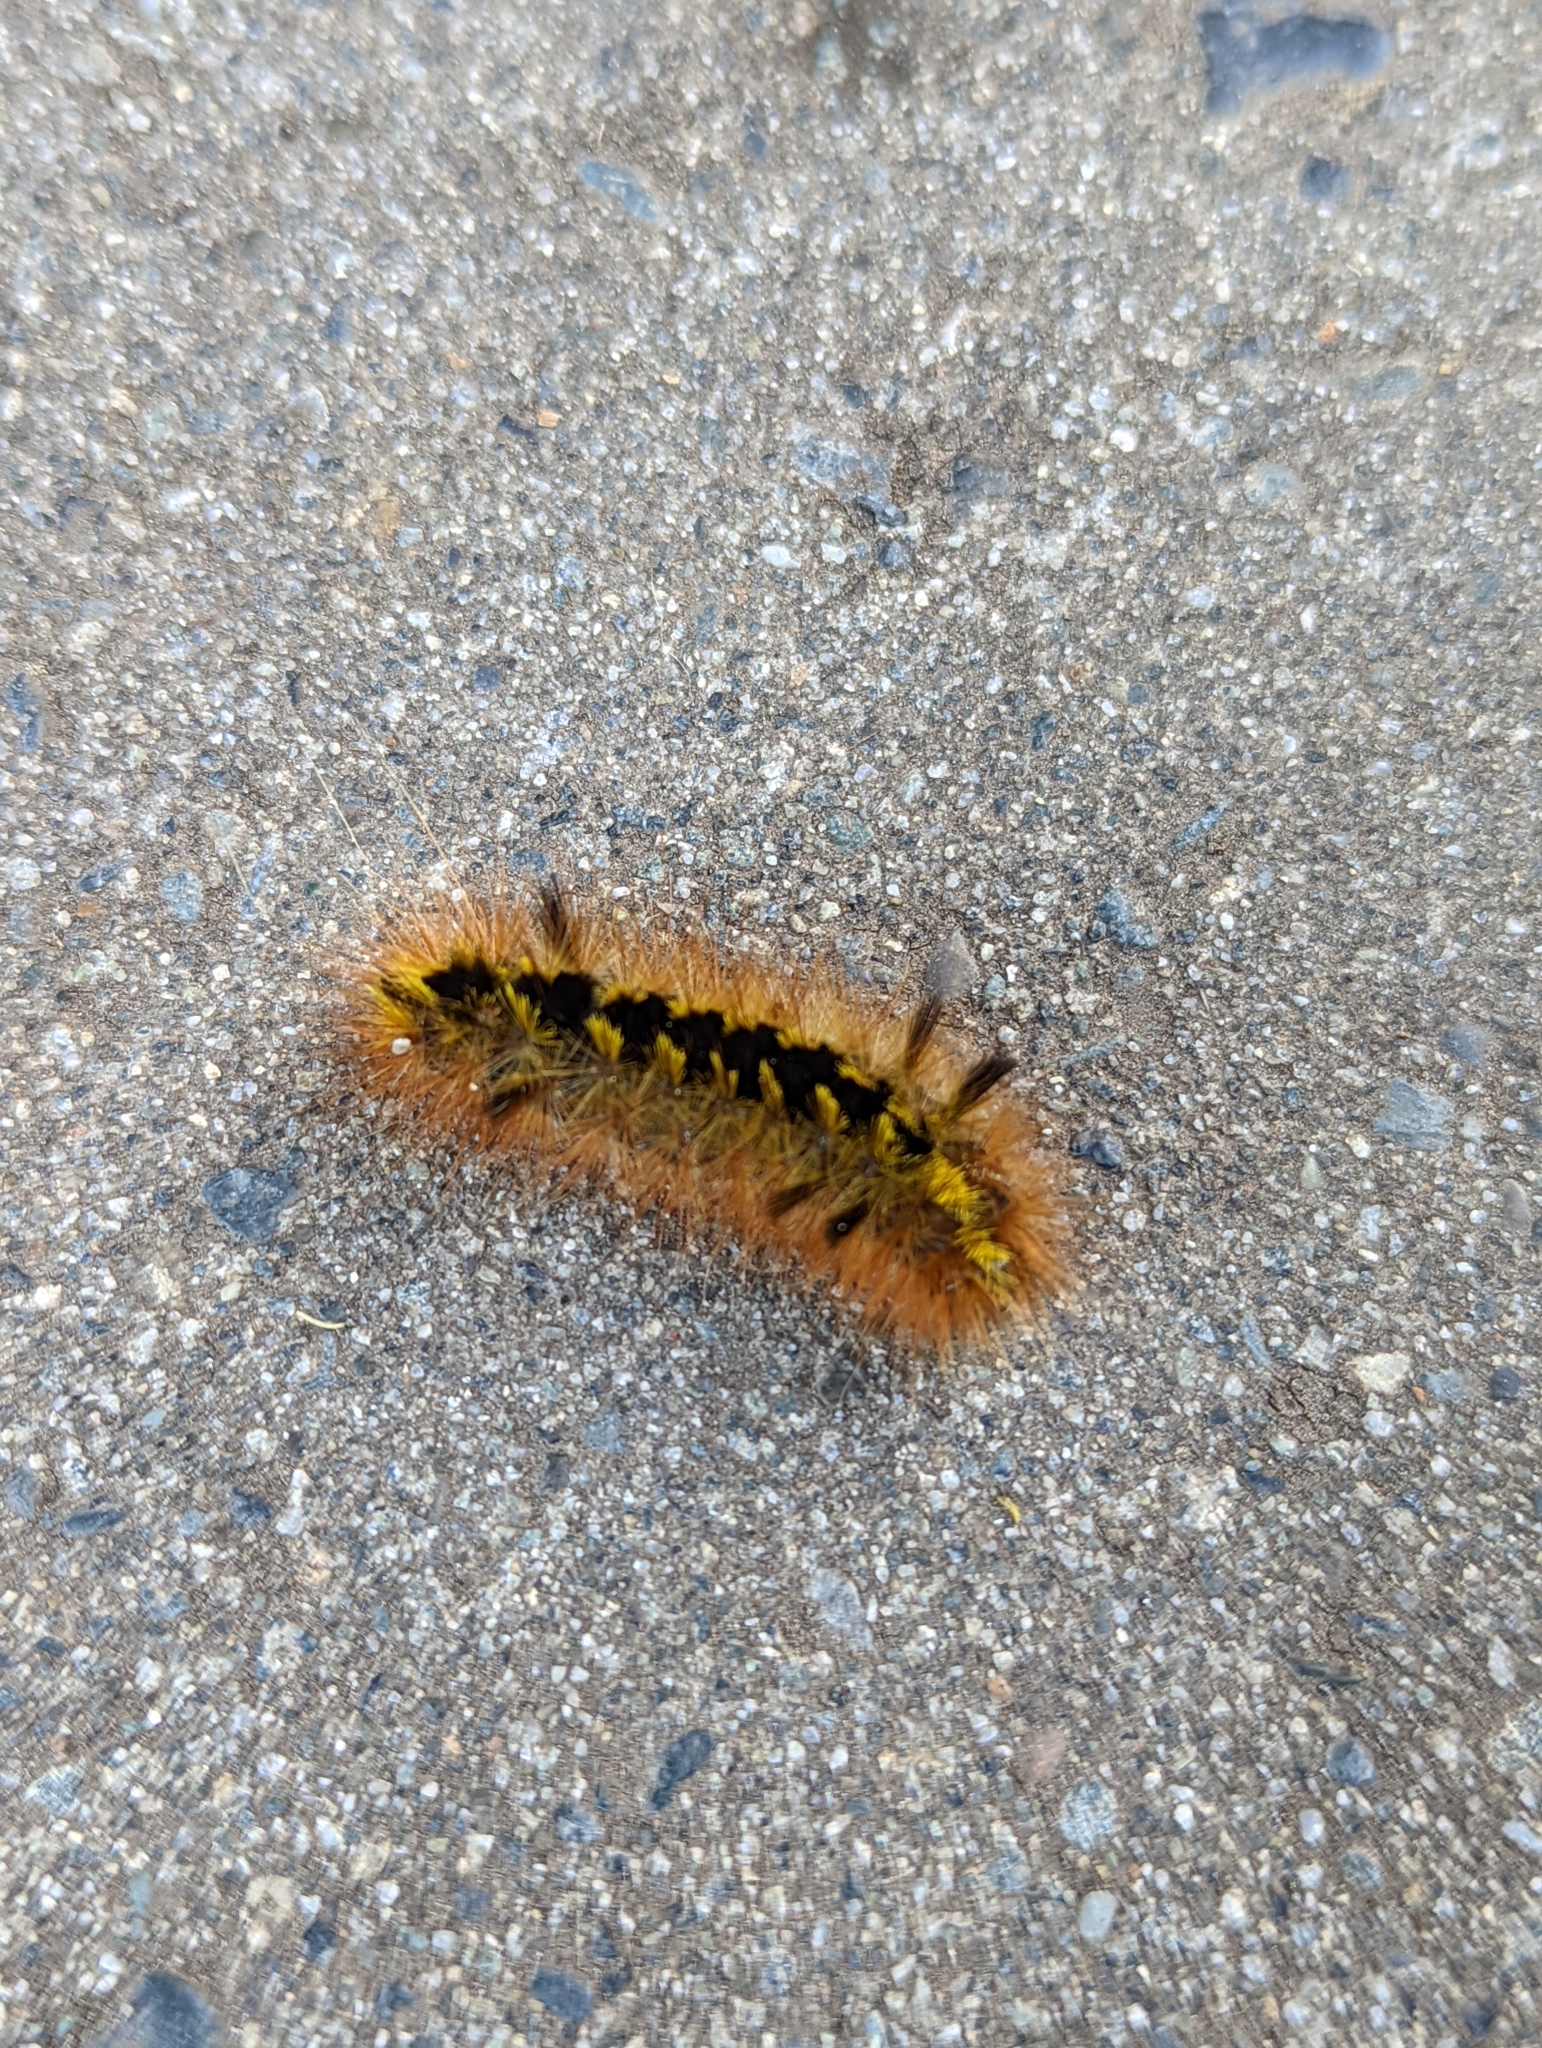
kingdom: Animalia
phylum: Arthropoda
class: Insecta
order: Lepidoptera
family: Erebidae
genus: Lophocampa
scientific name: Lophocampa argentata
